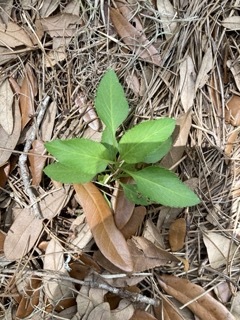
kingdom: Plantae
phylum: Tracheophyta
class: Magnoliopsida
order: Asterales
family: Asteraceae
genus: Bidens
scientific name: Bidens alba
